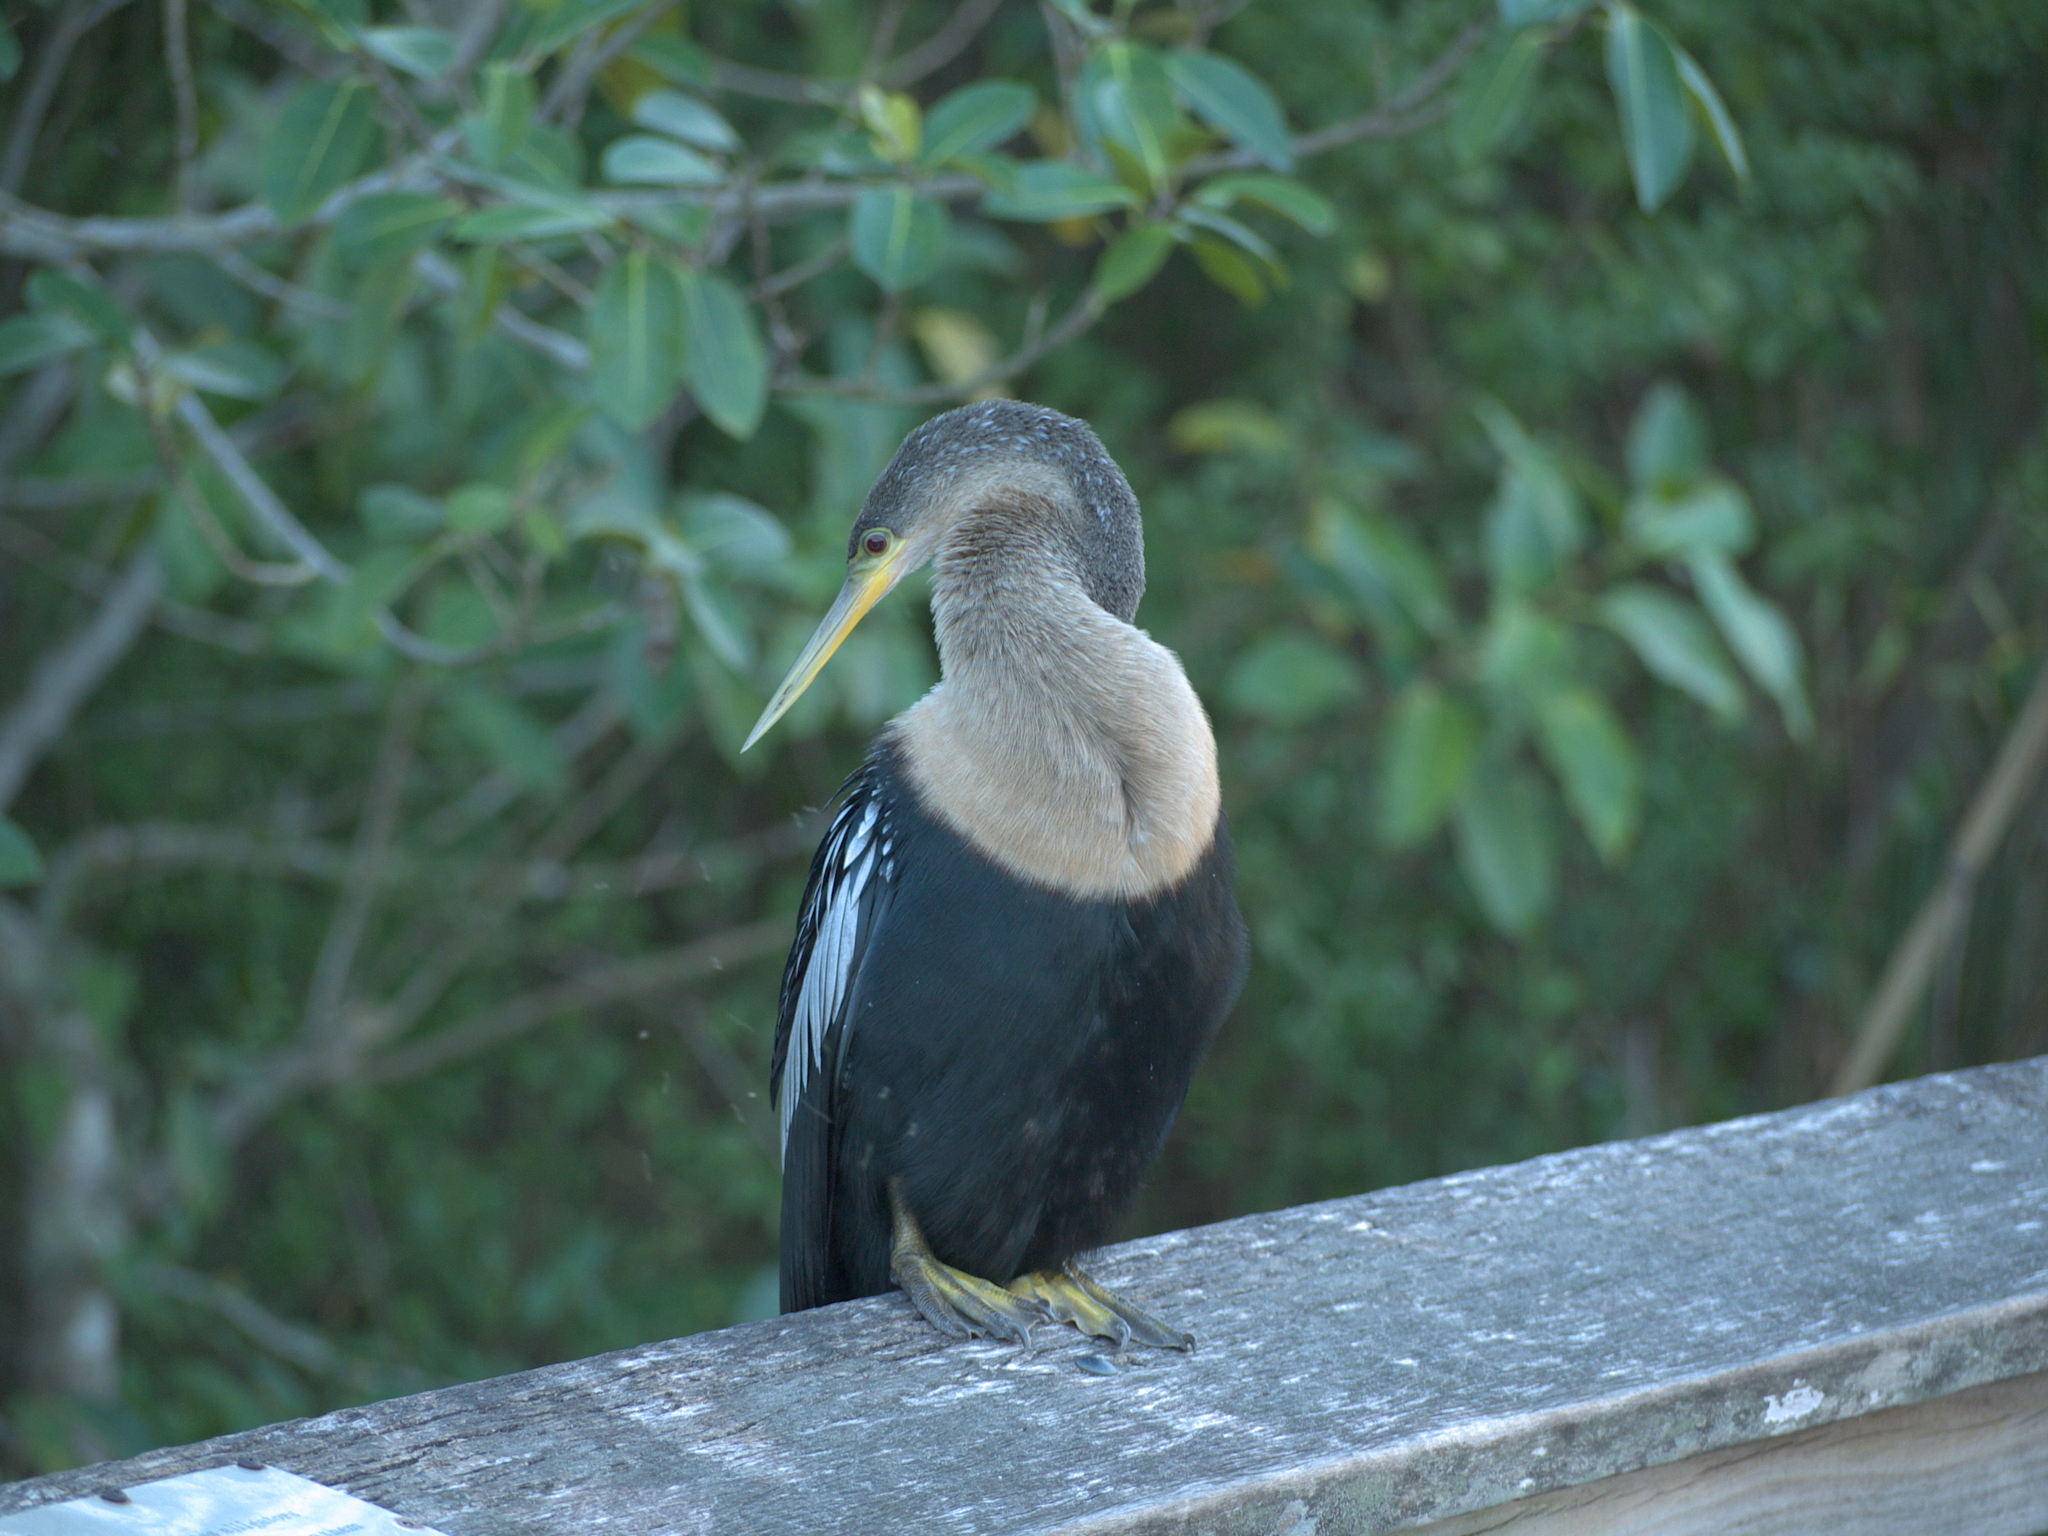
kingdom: Animalia
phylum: Chordata
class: Aves
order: Suliformes
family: Anhingidae
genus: Anhinga
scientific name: Anhinga anhinga
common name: Anhinga
